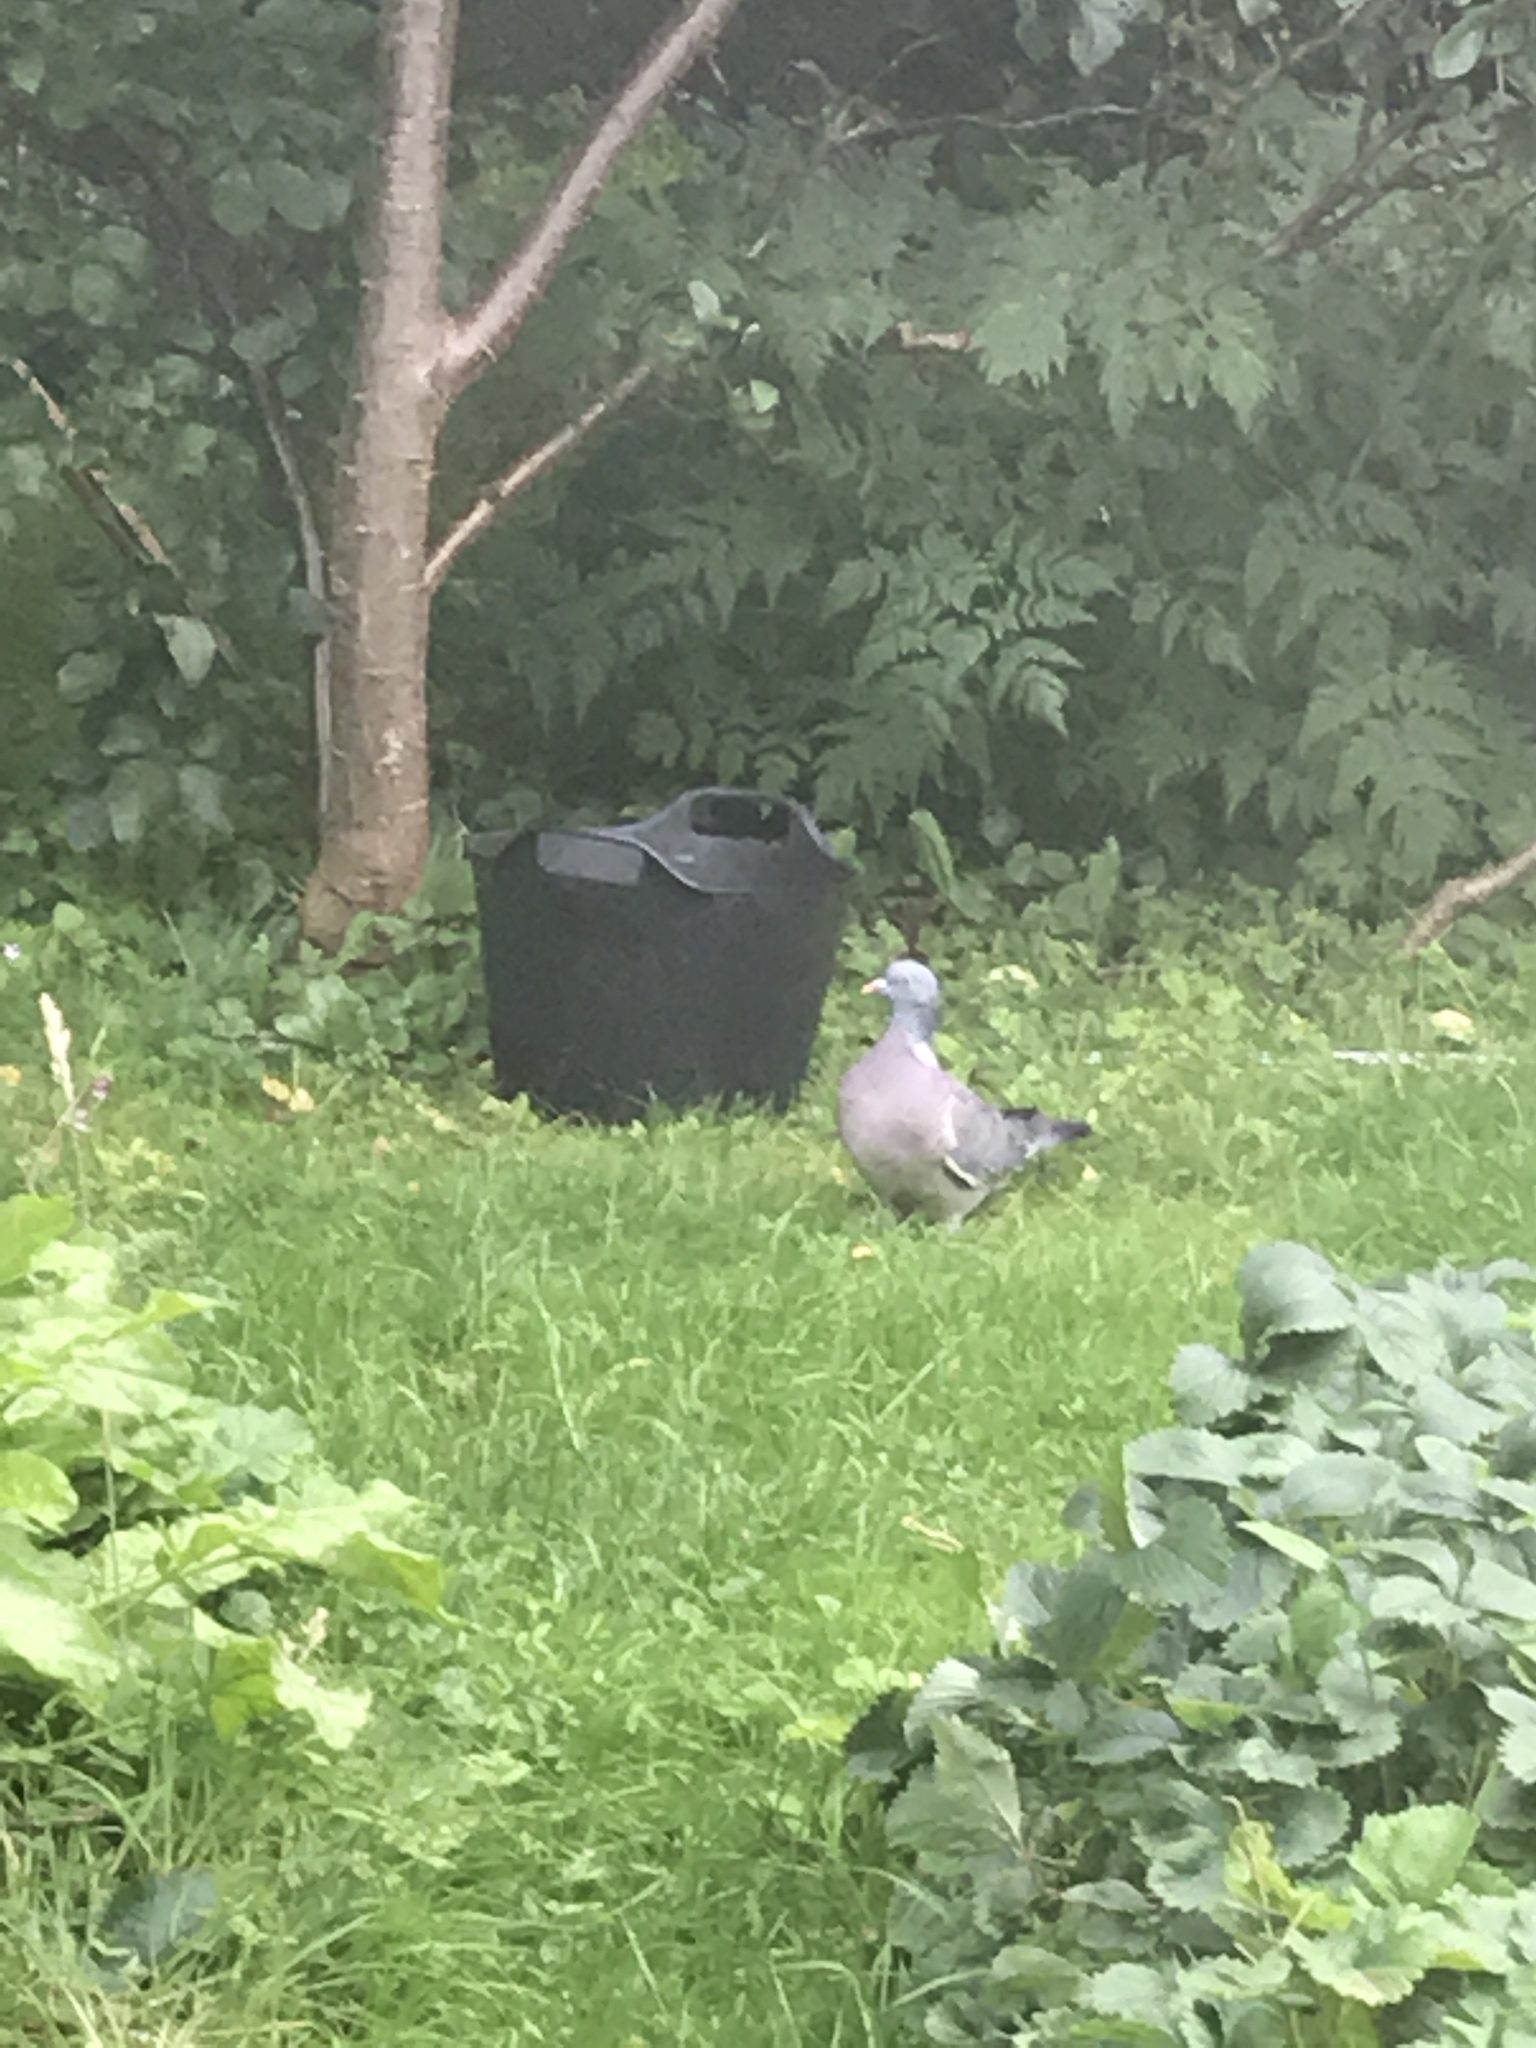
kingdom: Animalia
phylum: Chordata
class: Aves
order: Columbiformes
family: Columbidae
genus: Columba
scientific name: Columba palumbus
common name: Common wood pigeon
